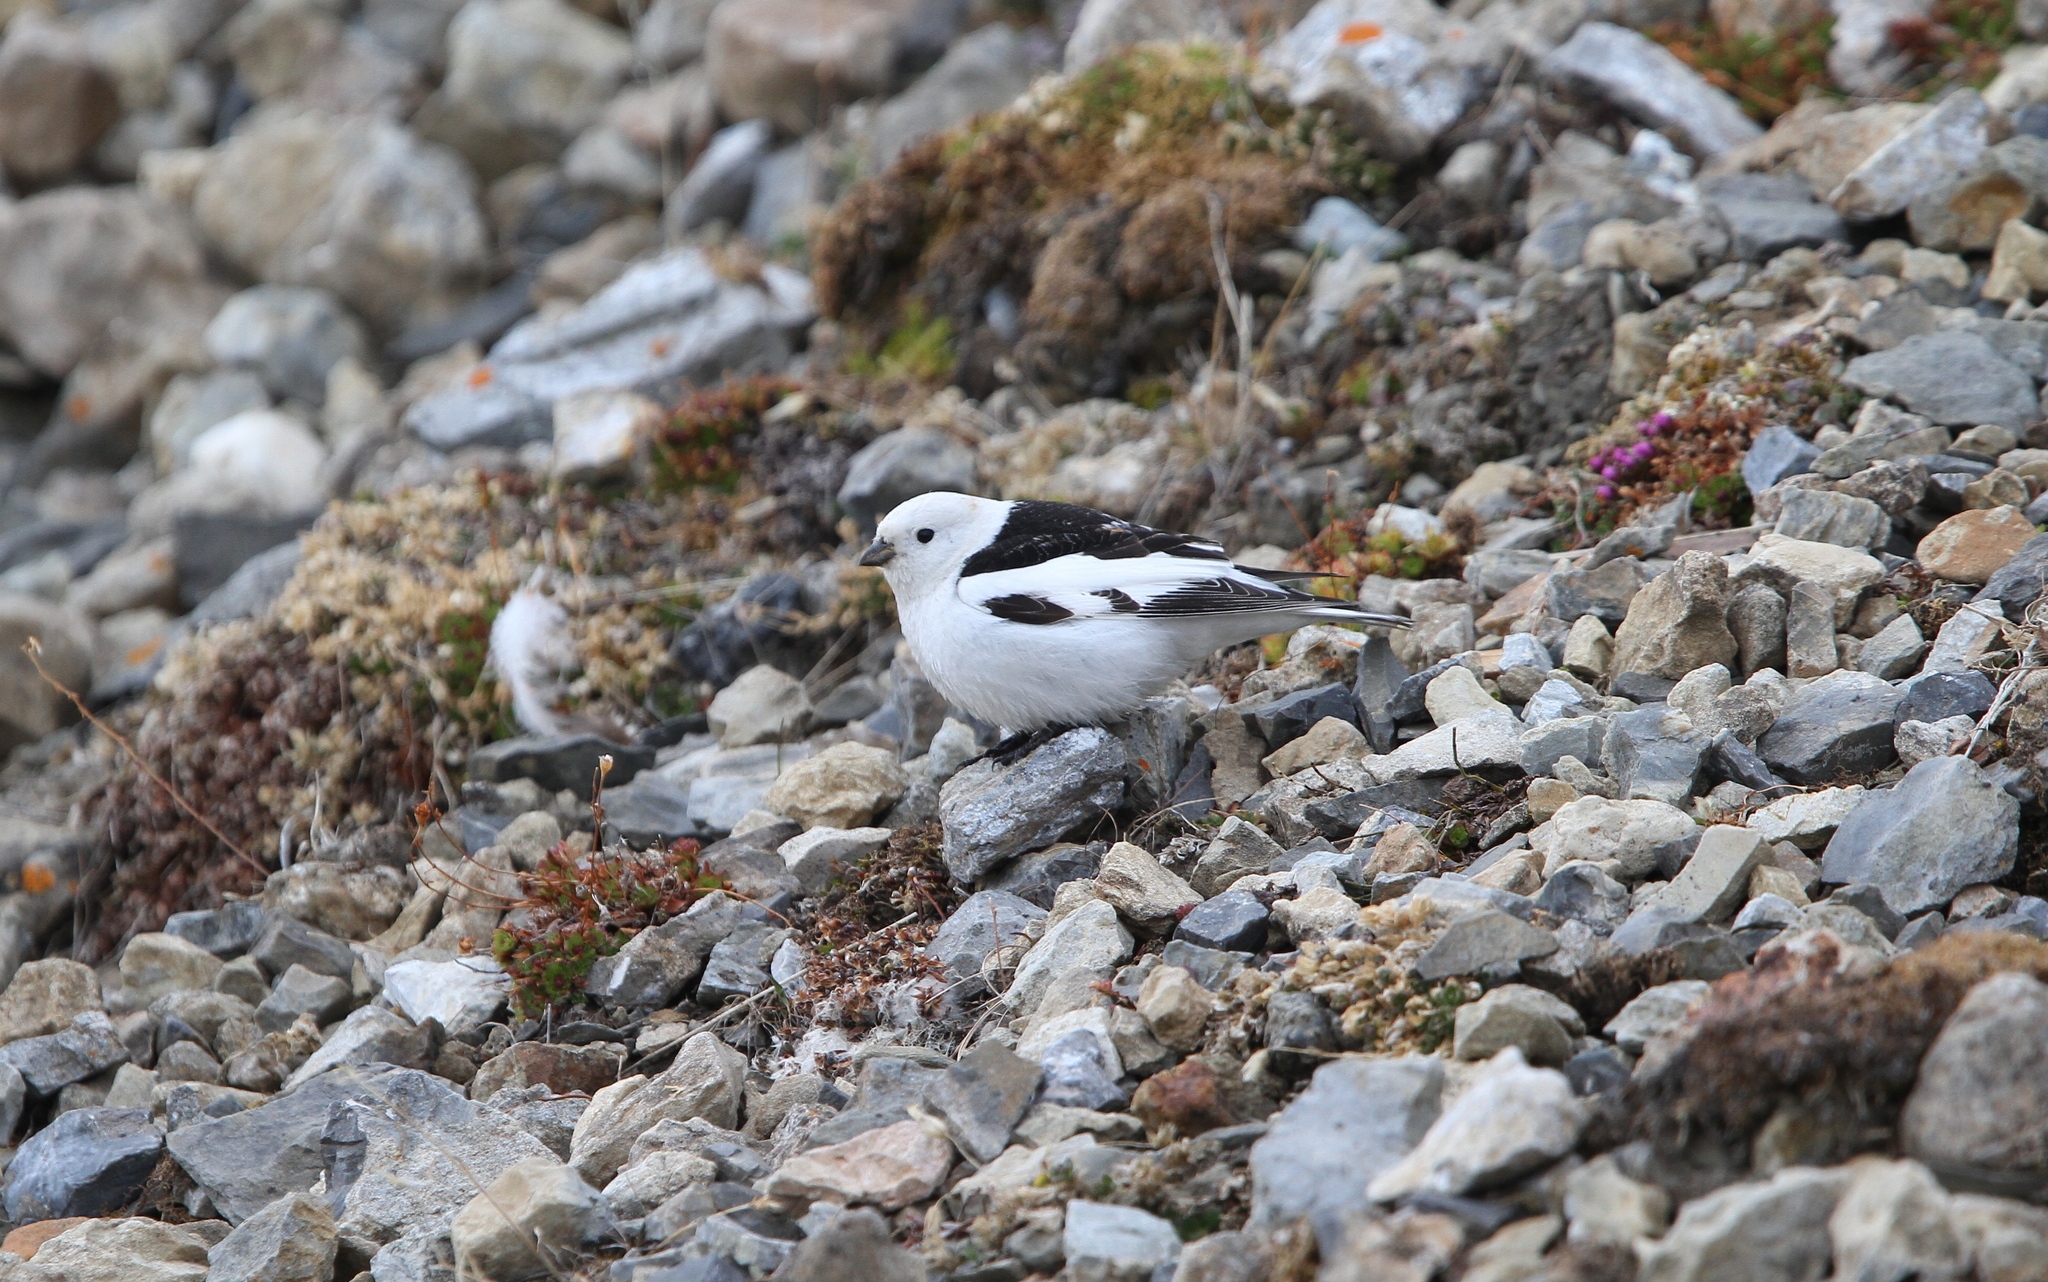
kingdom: Animalia
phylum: Chordata
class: Aves
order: Passeriformes
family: Calcariidae
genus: Plectrophenax
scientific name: Plectrophenax nivalis
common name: Snow bunting
